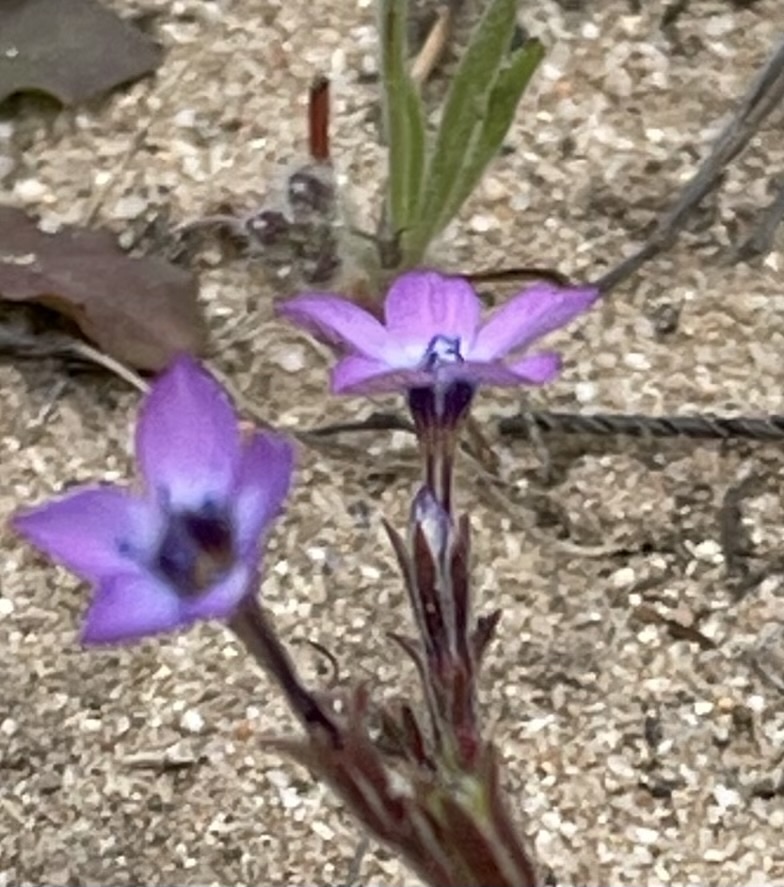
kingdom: Plantae
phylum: Tracheophyta
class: Magnoliopsida
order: Ericales
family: Polemoniaceae
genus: Gilia
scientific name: Gilia tenuiflora
